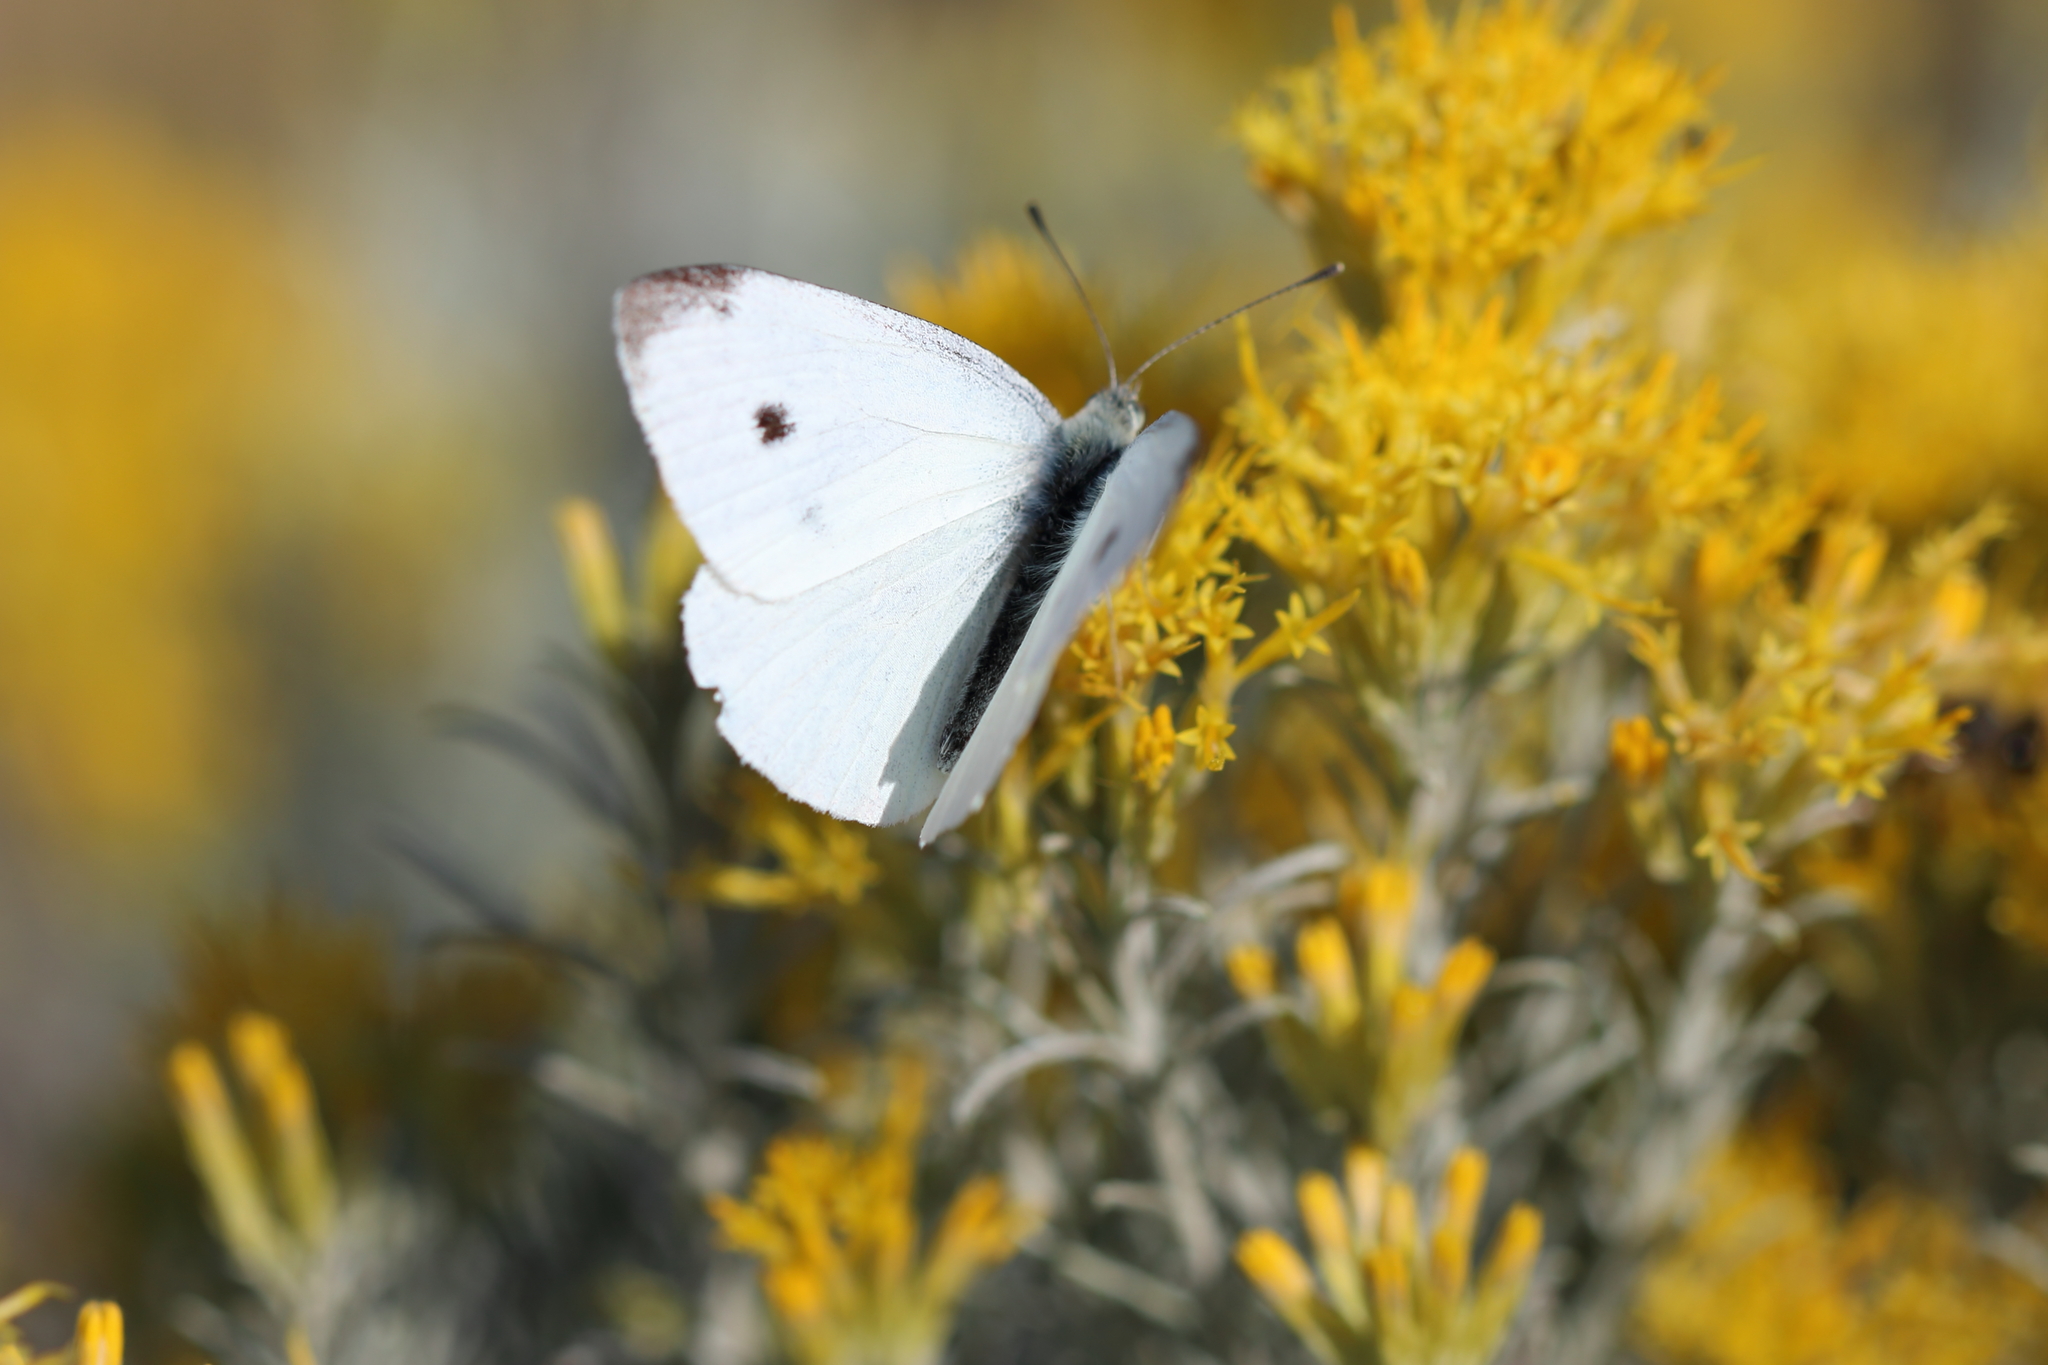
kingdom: Animalia
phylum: Arthropoda
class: Insecta
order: Lepidoptera
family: Pieridae
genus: Pieris
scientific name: Pieris rapae
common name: Small white
